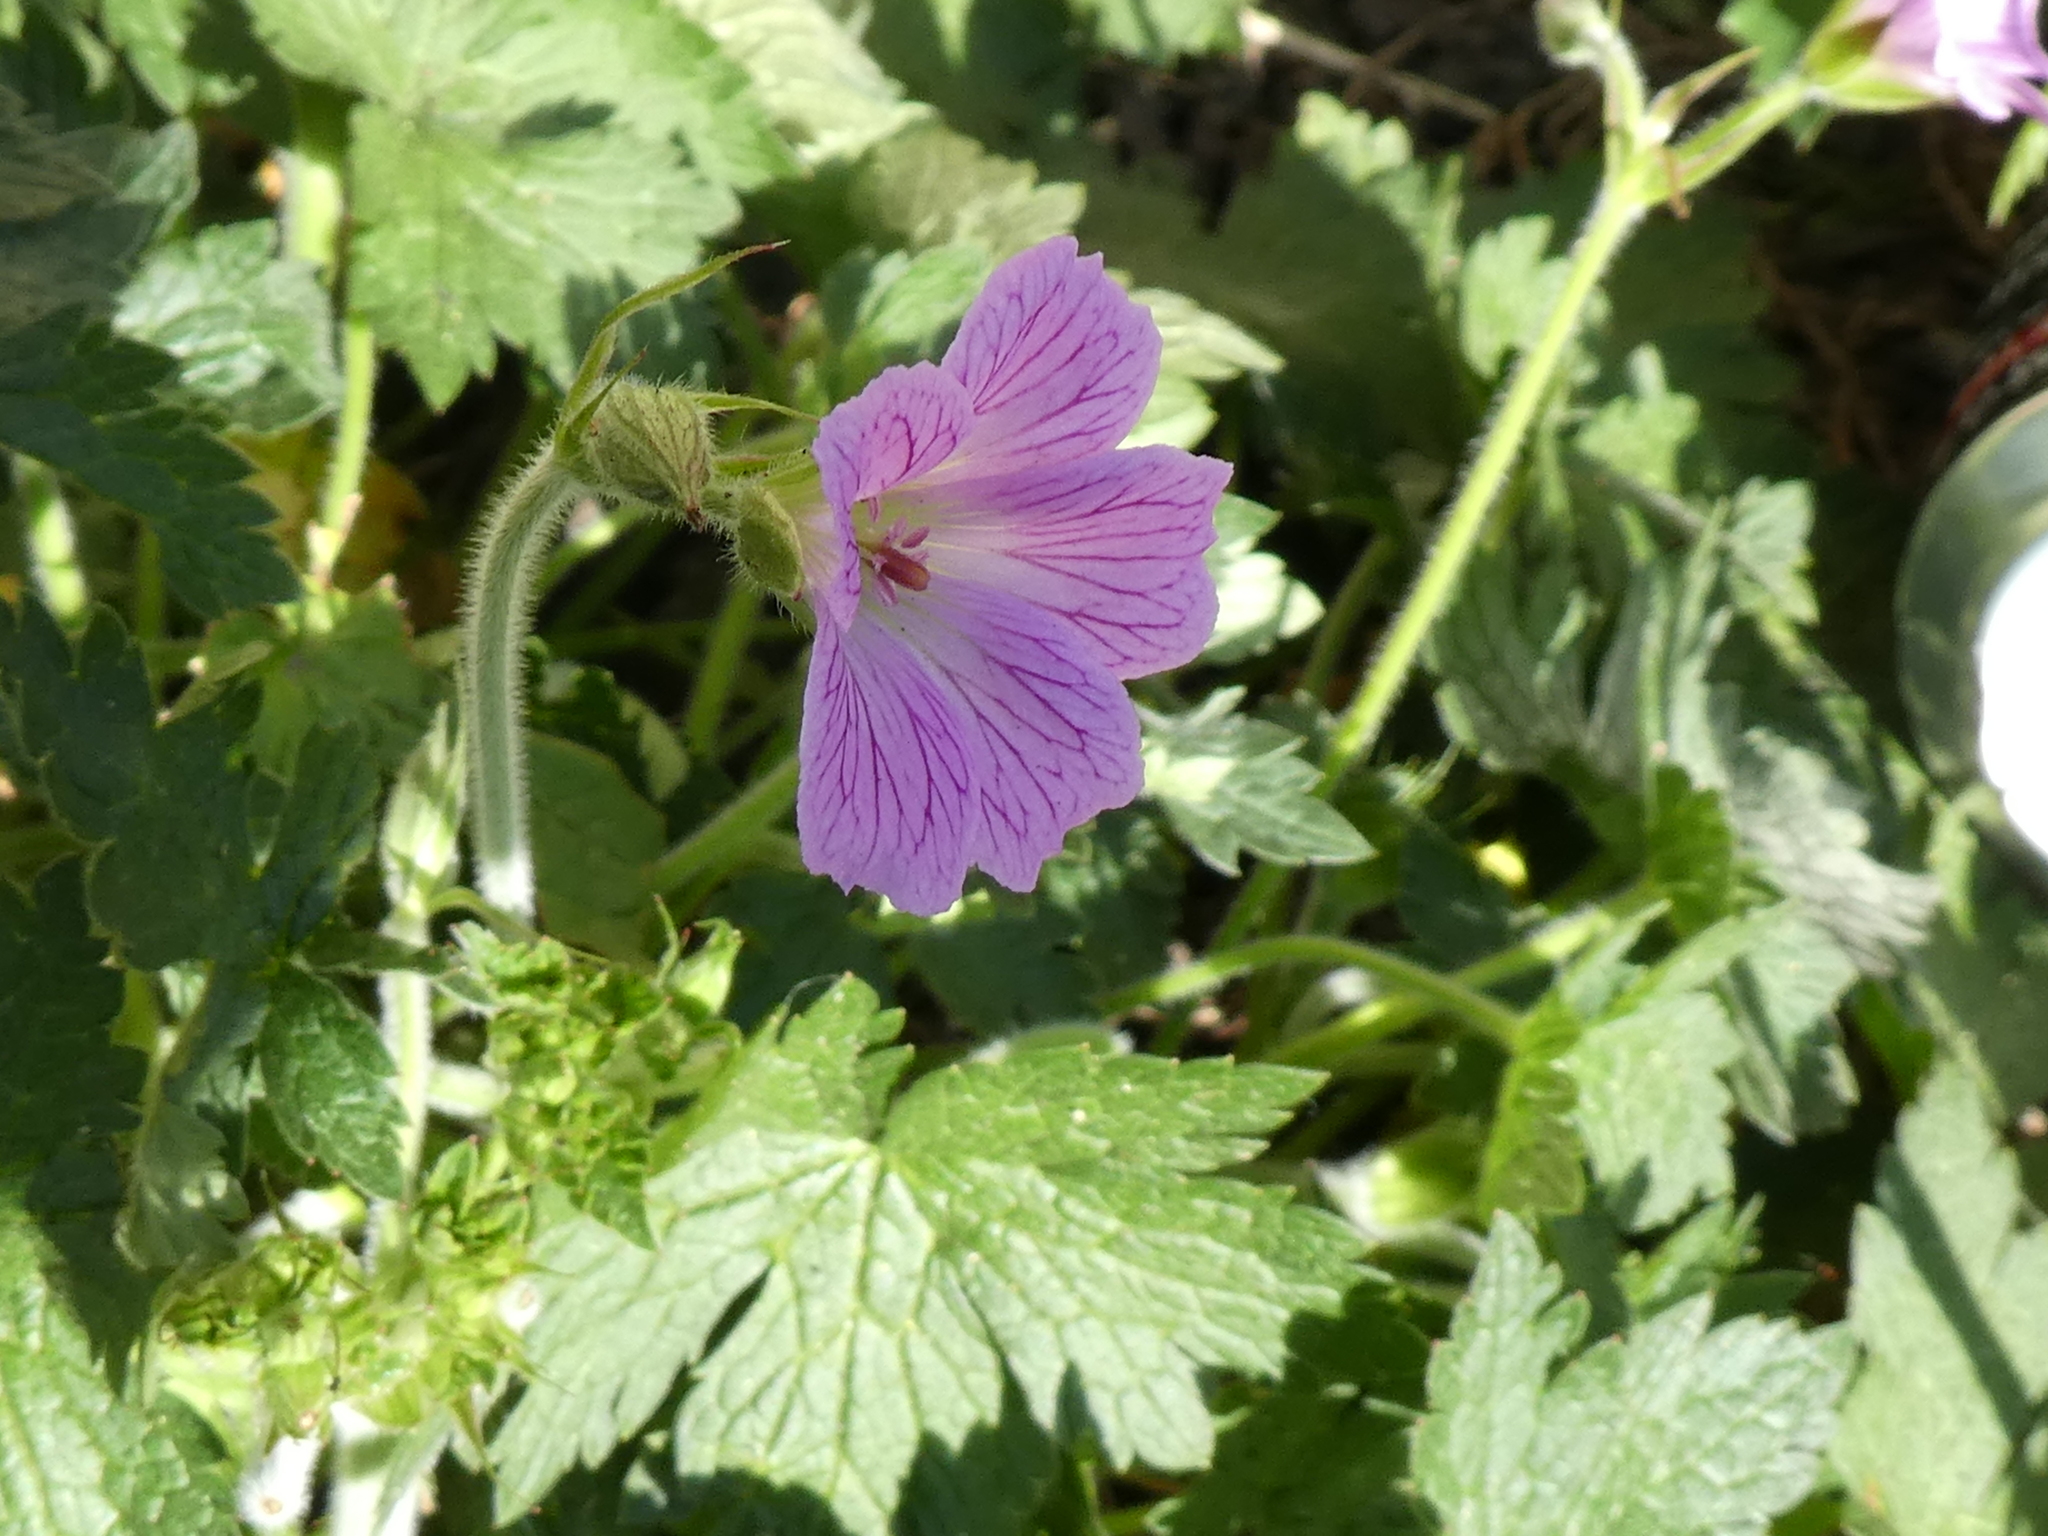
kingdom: Plantae
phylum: Tracheophyta
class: Magnoliopsida
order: Geraniales
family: Geraniaceae
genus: Geranium
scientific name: Geranium oxonianum
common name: Druce's crane's-bill
